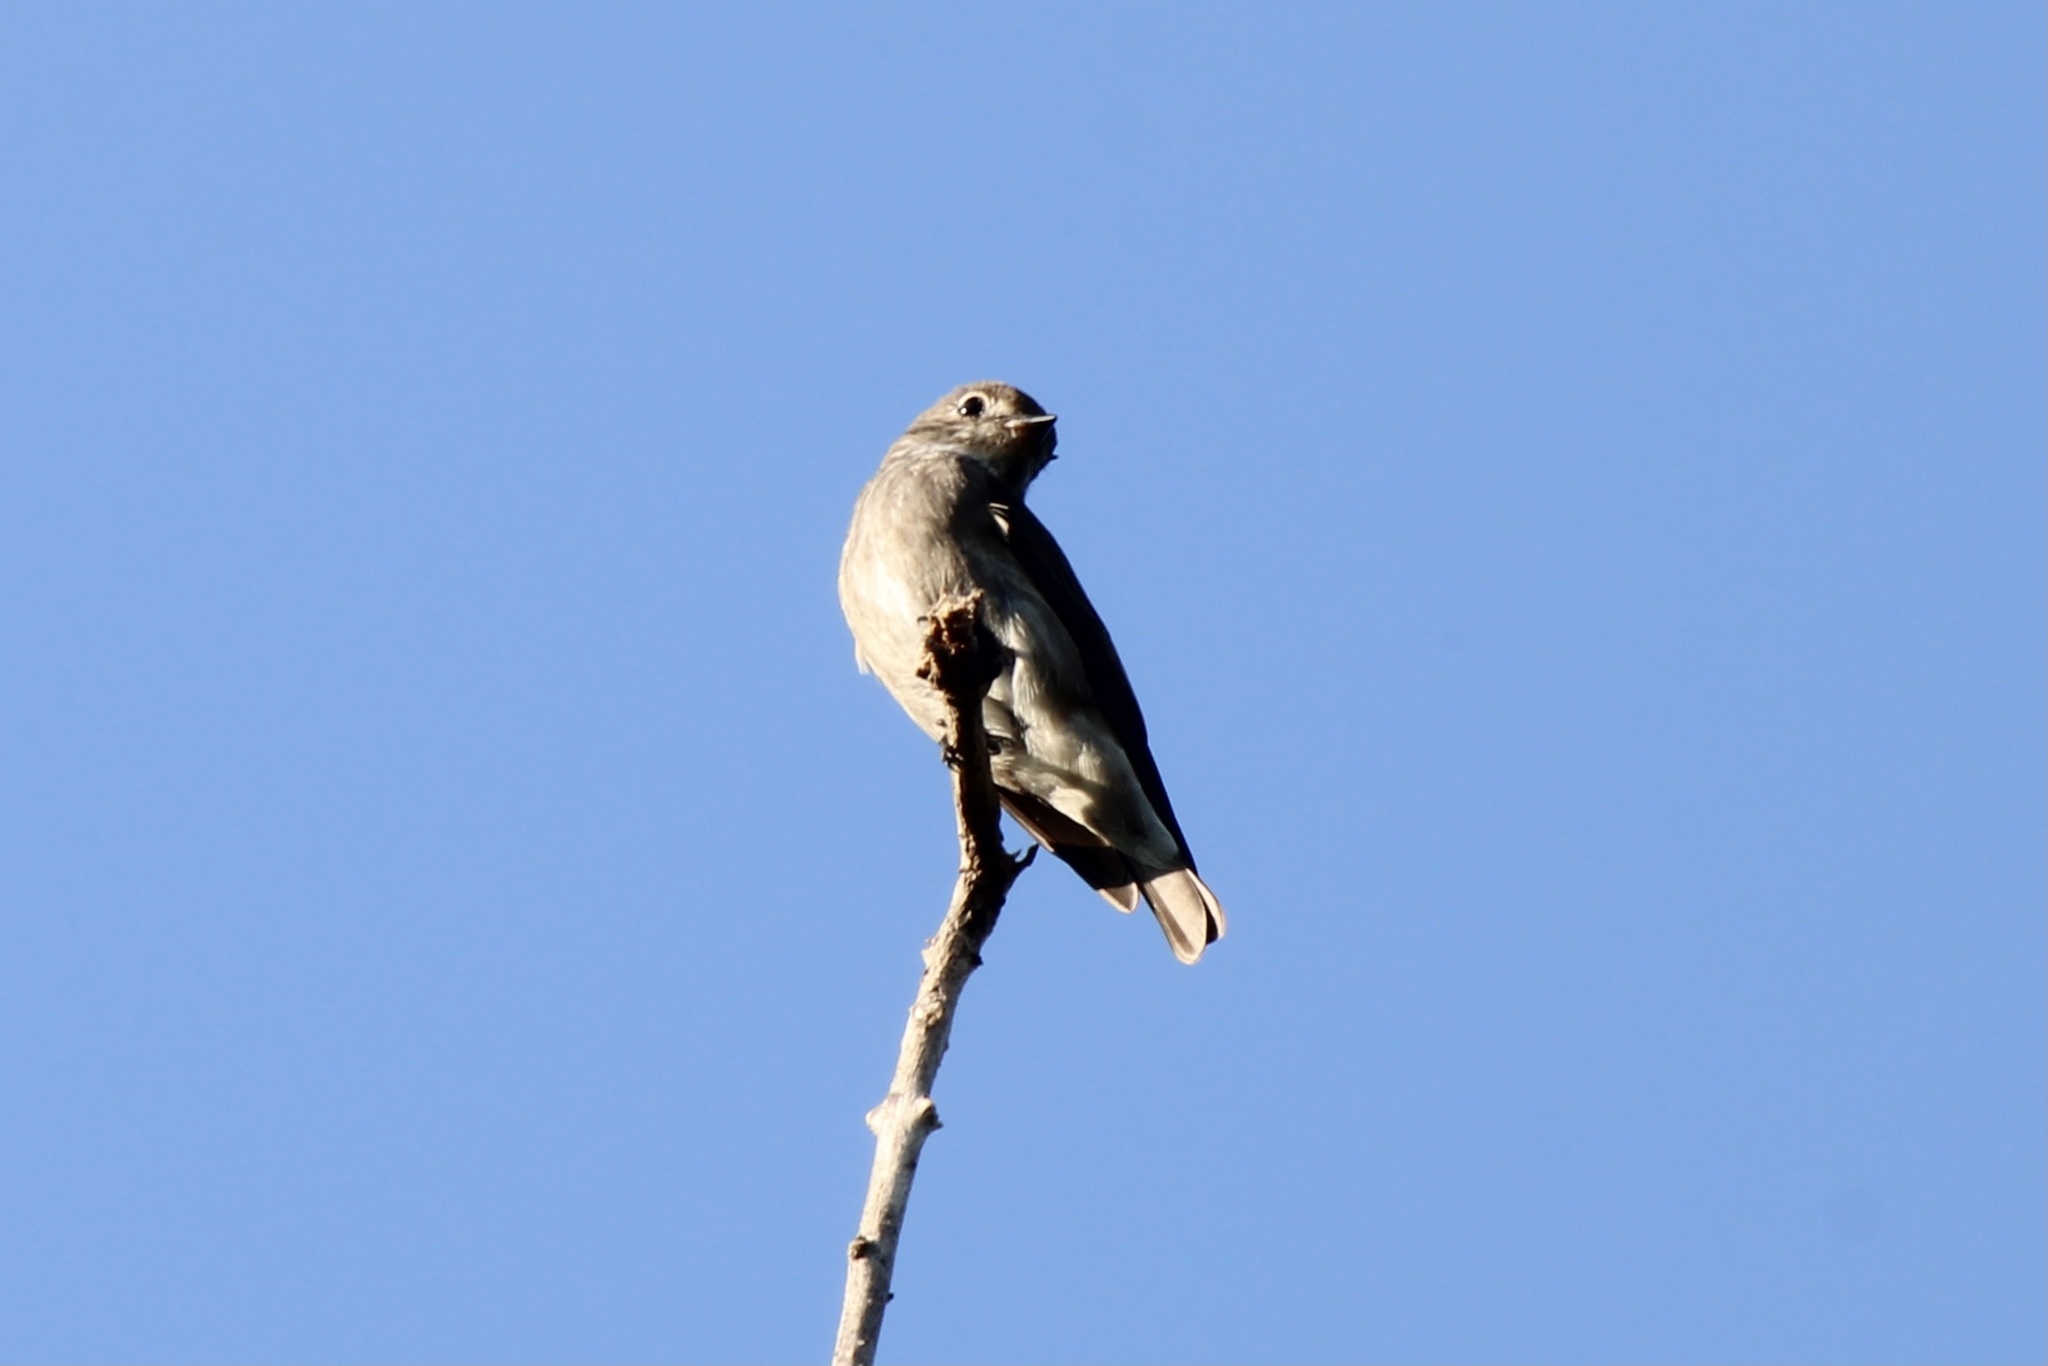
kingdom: Animalia
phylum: Chordata
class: Aves
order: Passeriformes
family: Muscicapidae
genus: Muscicapa
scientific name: Muscicapa sibirica
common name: Dark-sided flycatcher
